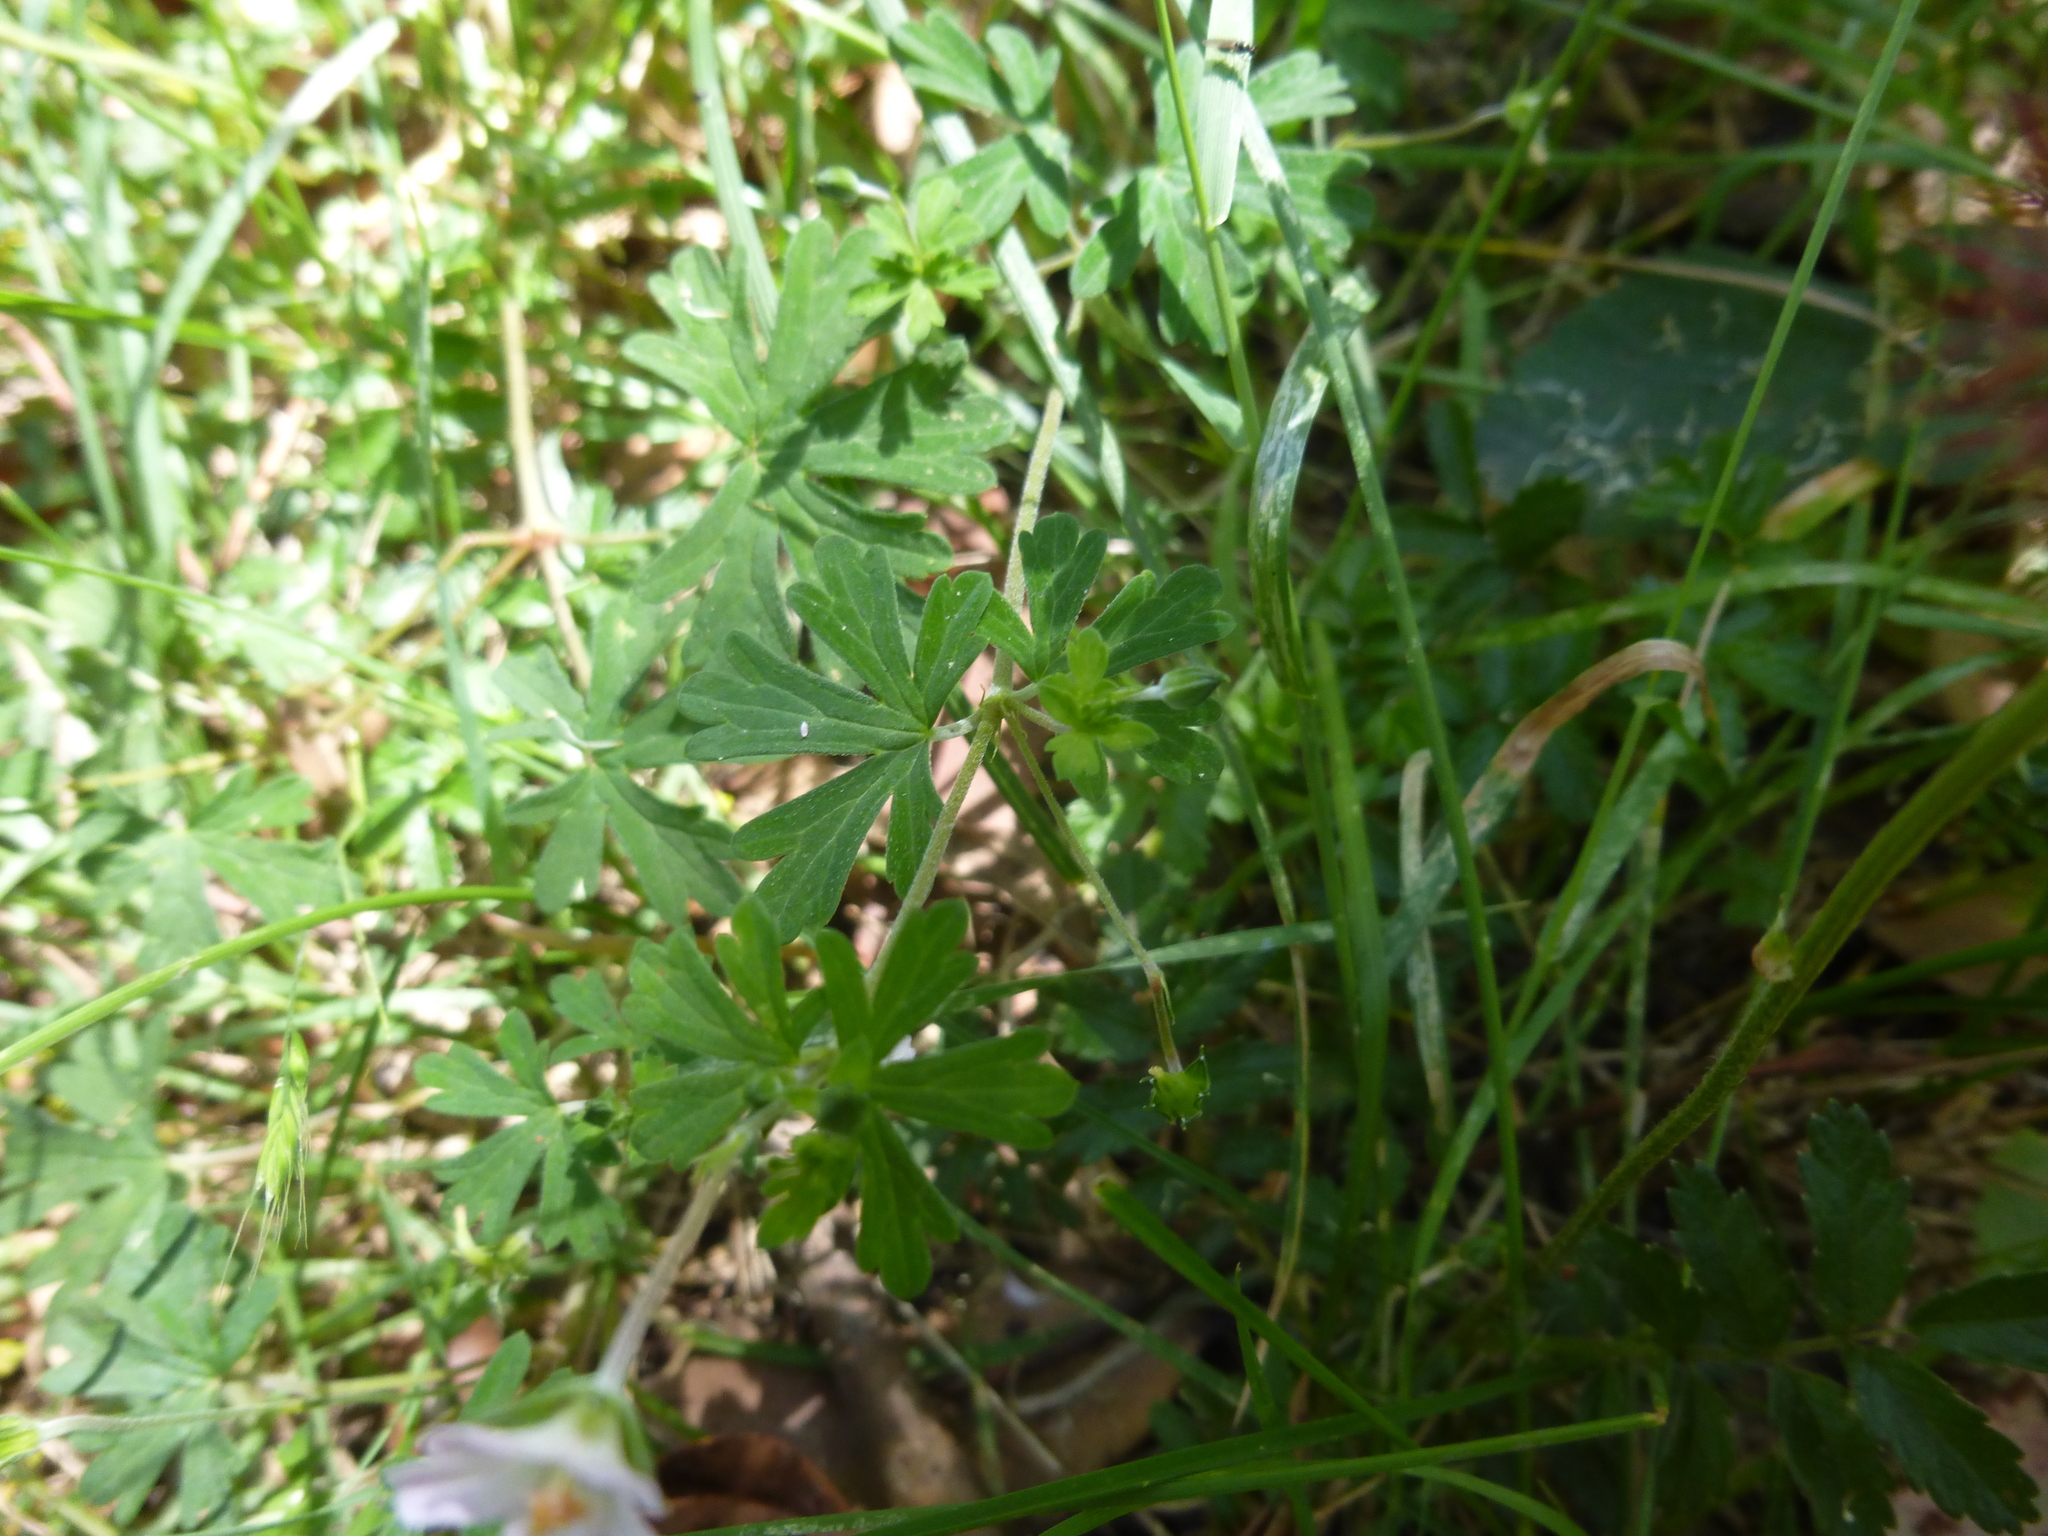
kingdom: Plantae
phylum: Tracheophyta
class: Magnoliopsida
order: Geraniales
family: Geraniaceae
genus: Geranium
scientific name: Geranium potentilloides
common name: Cinquefoil geranium
